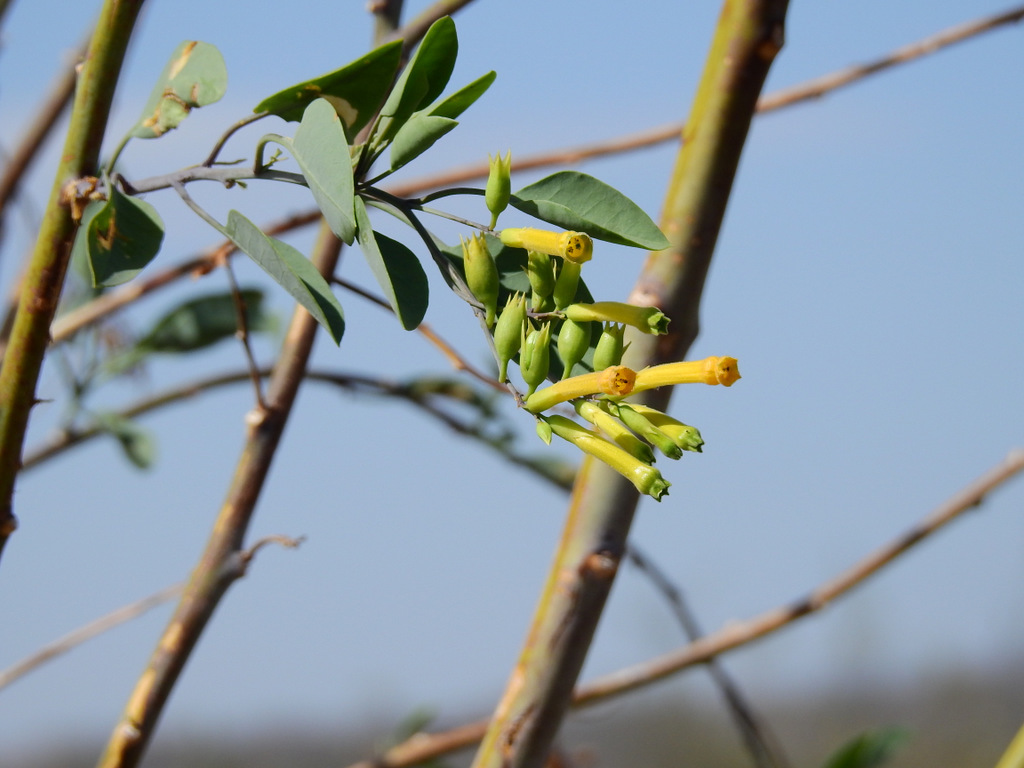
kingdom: Plantae
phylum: Tracheophyta
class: Magnoliopsida
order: Solanales
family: Solanaceae
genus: Nicotiana
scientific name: Nicotiana glauca
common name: Tree tobacco
